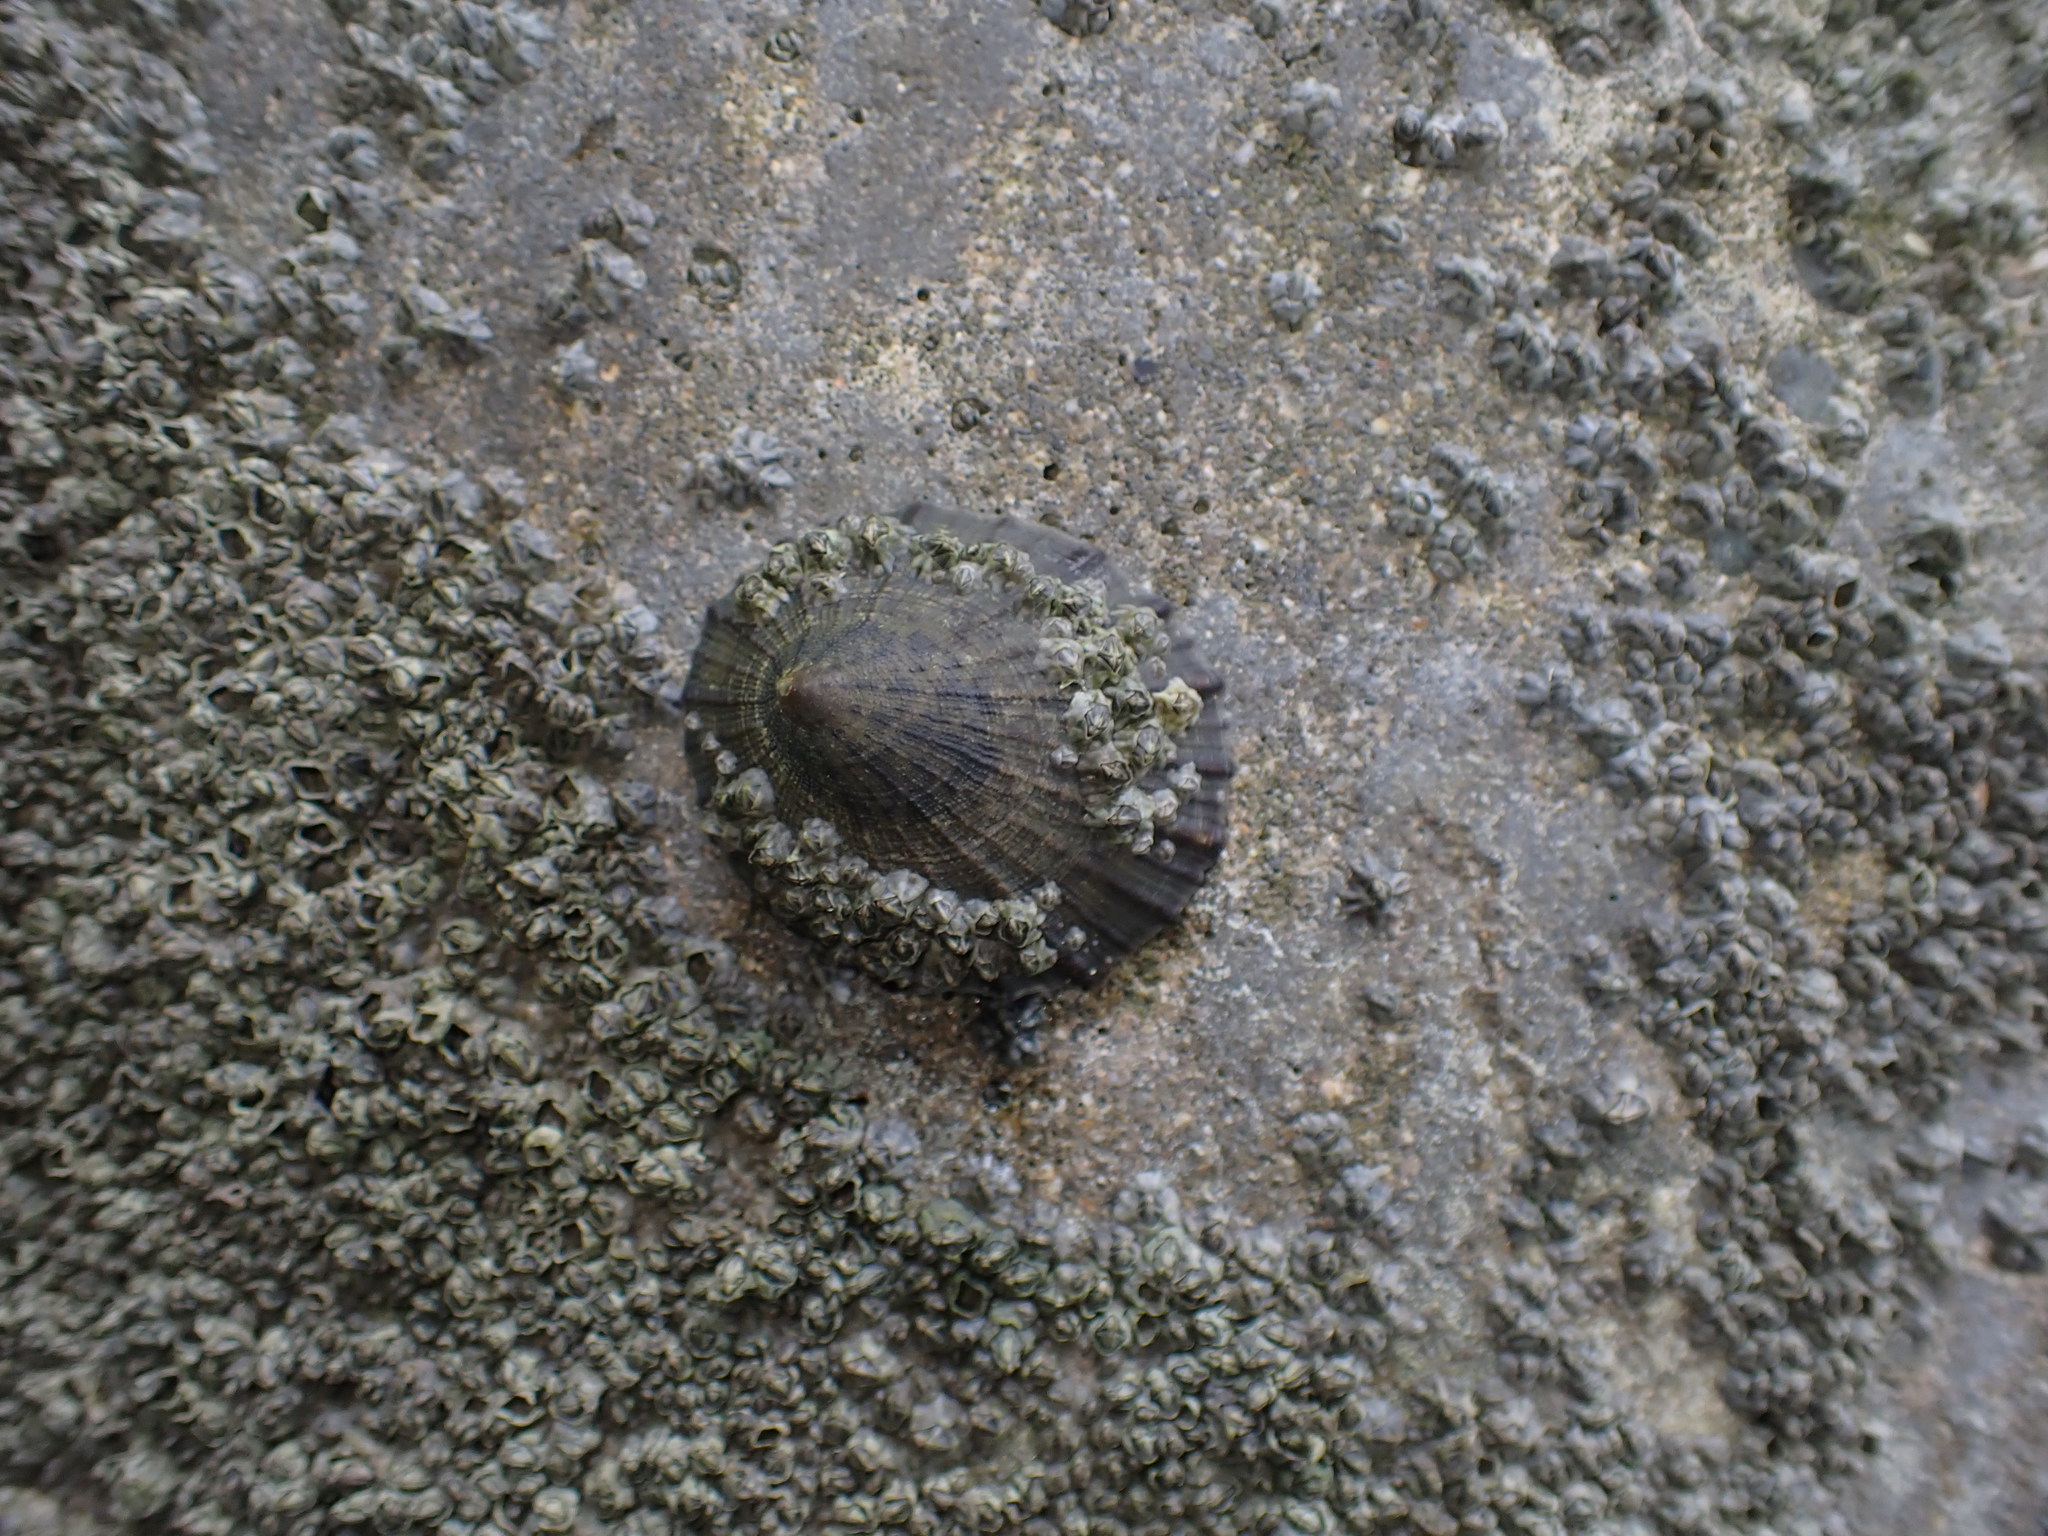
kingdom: Animalia
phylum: Mollusca
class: Gastropoda
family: Nacellidae
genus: Cellana
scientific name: Cellana radians
